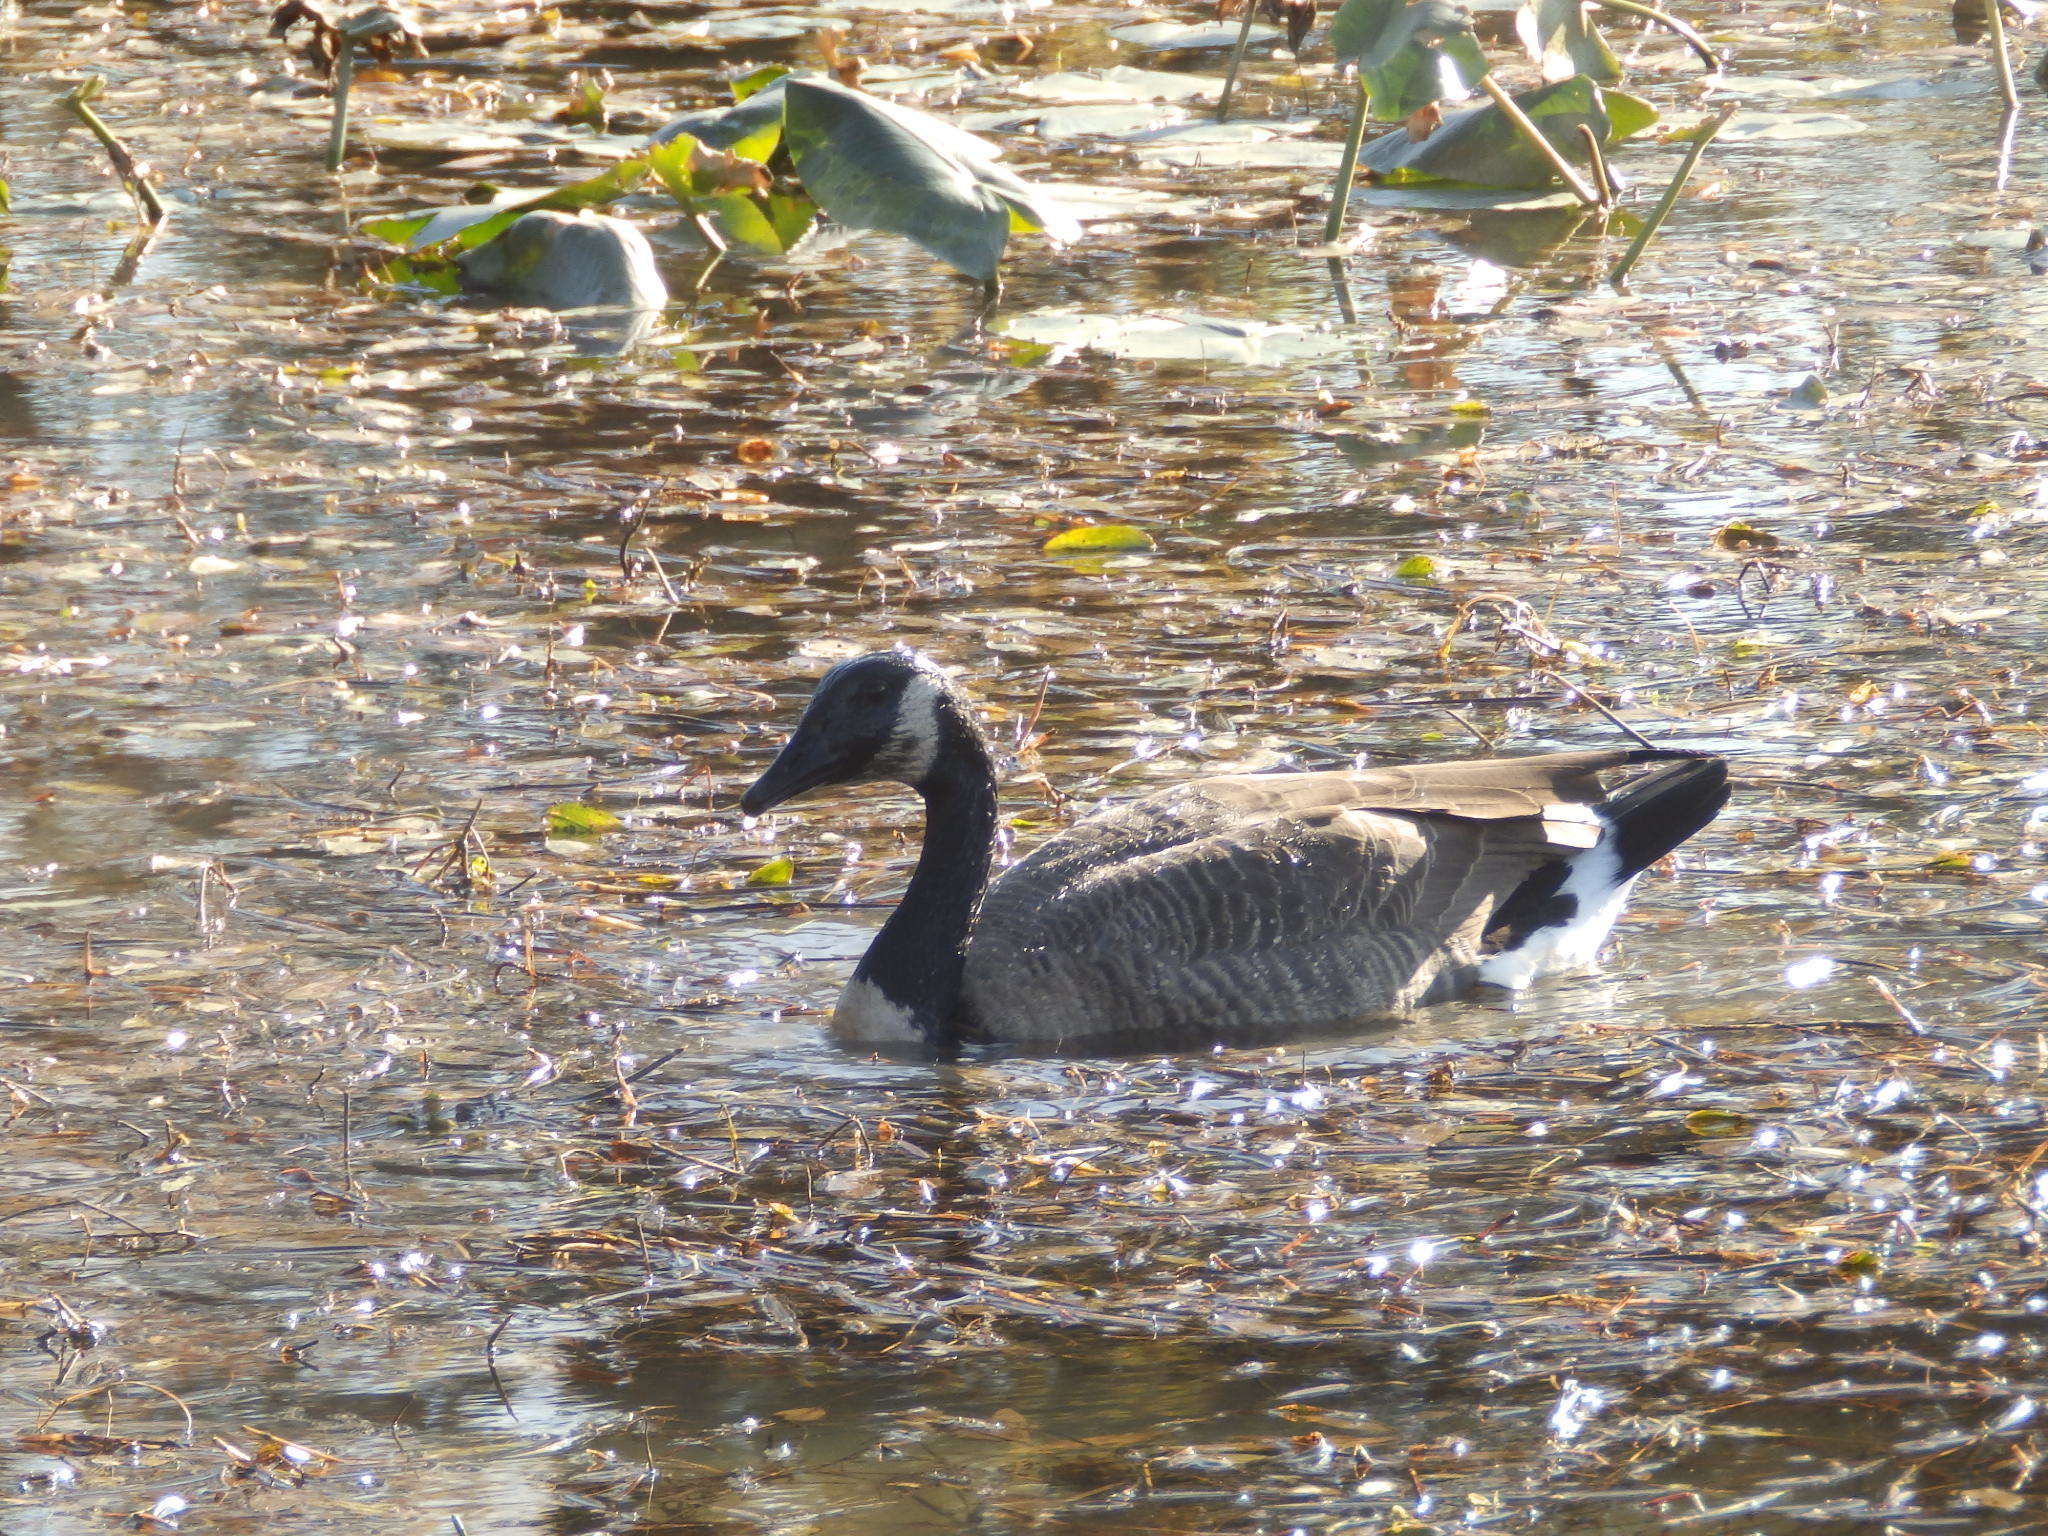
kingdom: Animalia
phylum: Chordata
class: Aves
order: Anseriformes
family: Anatidae
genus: Branta
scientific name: Branta canadensis
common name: Canada goose
